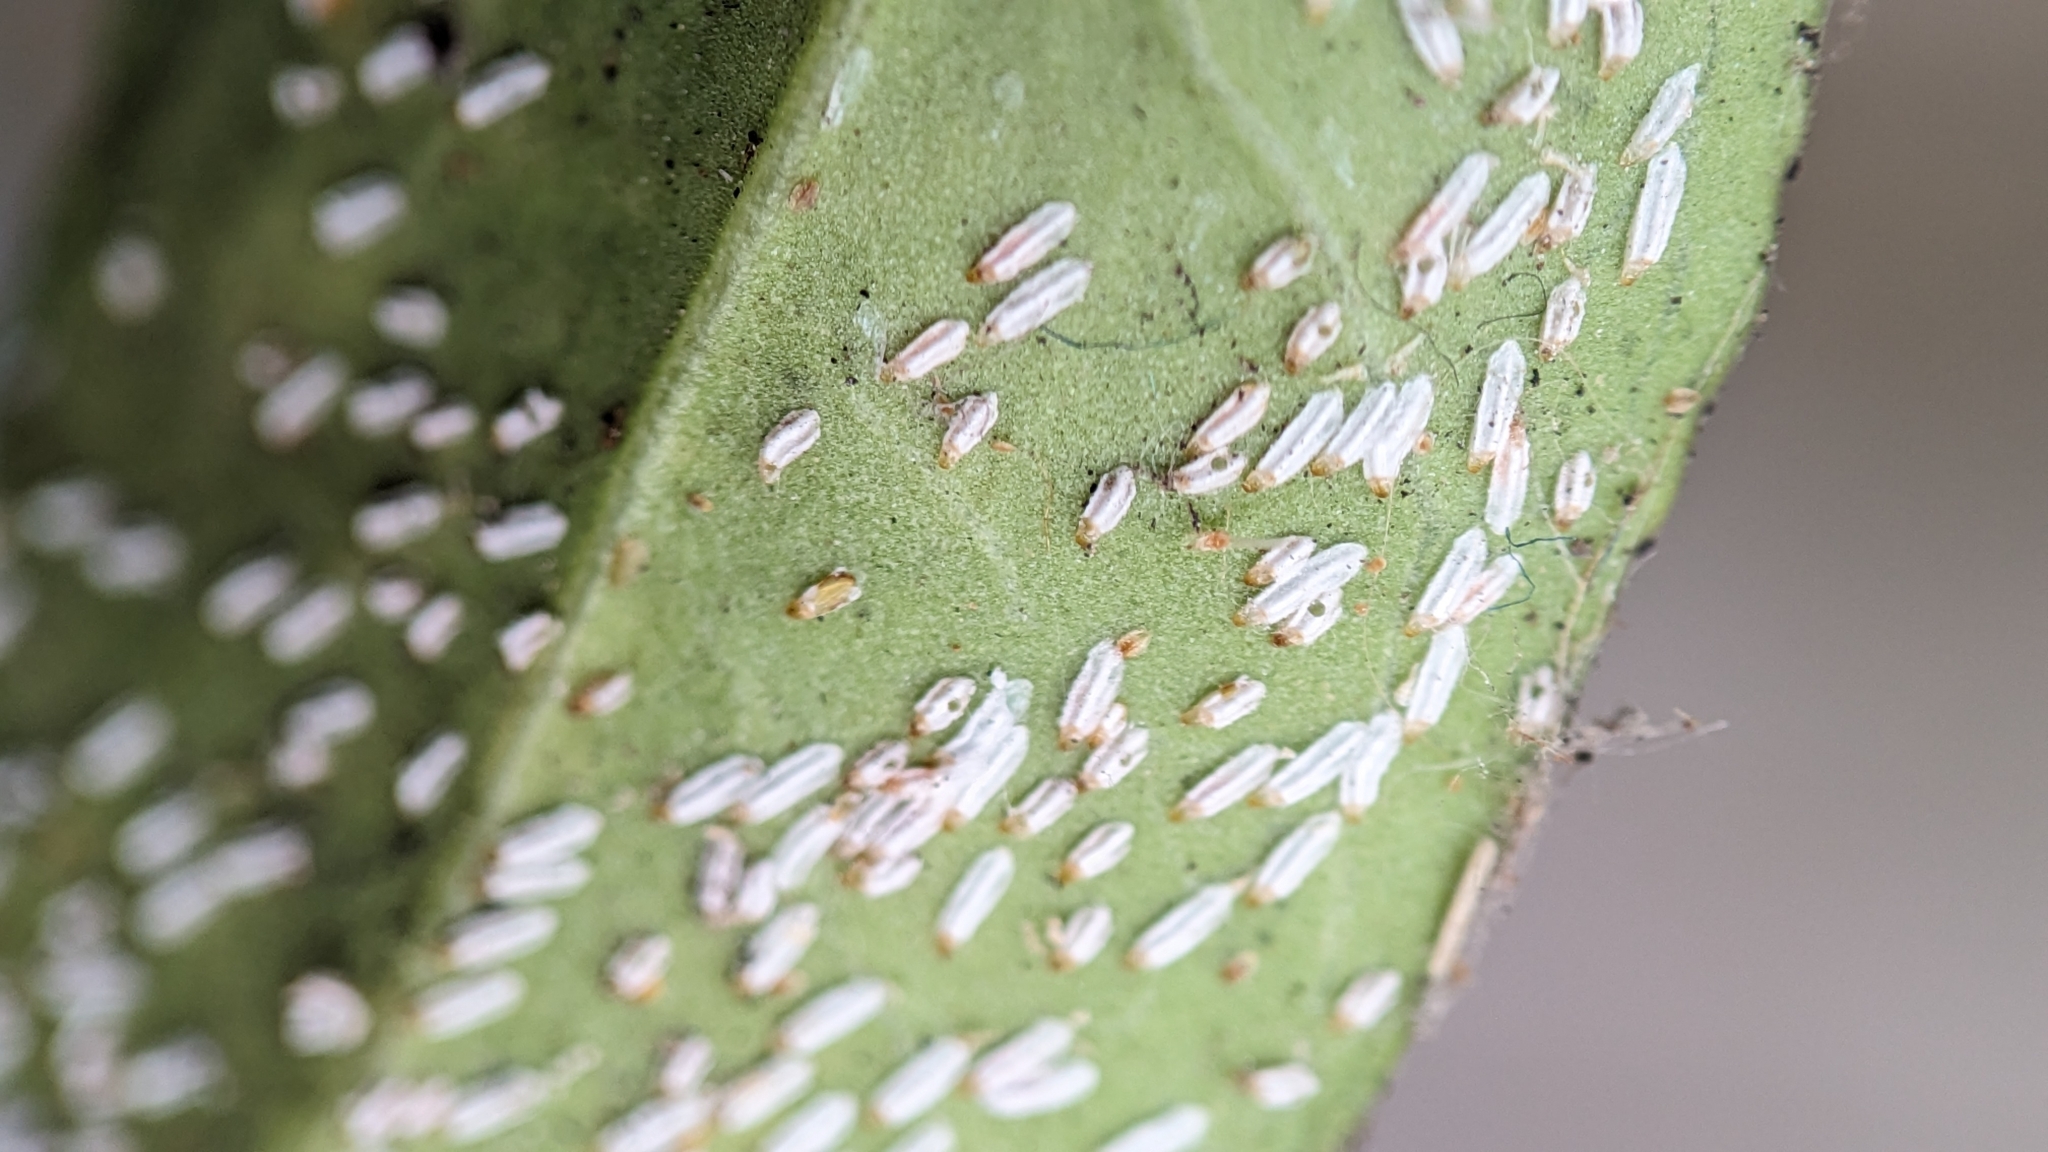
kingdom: Animalia
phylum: Arthropoda
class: Insecta
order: Hemiptera
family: Diaspididae
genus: Unaspis
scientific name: Unaspis euonymi
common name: Euonymus scale
